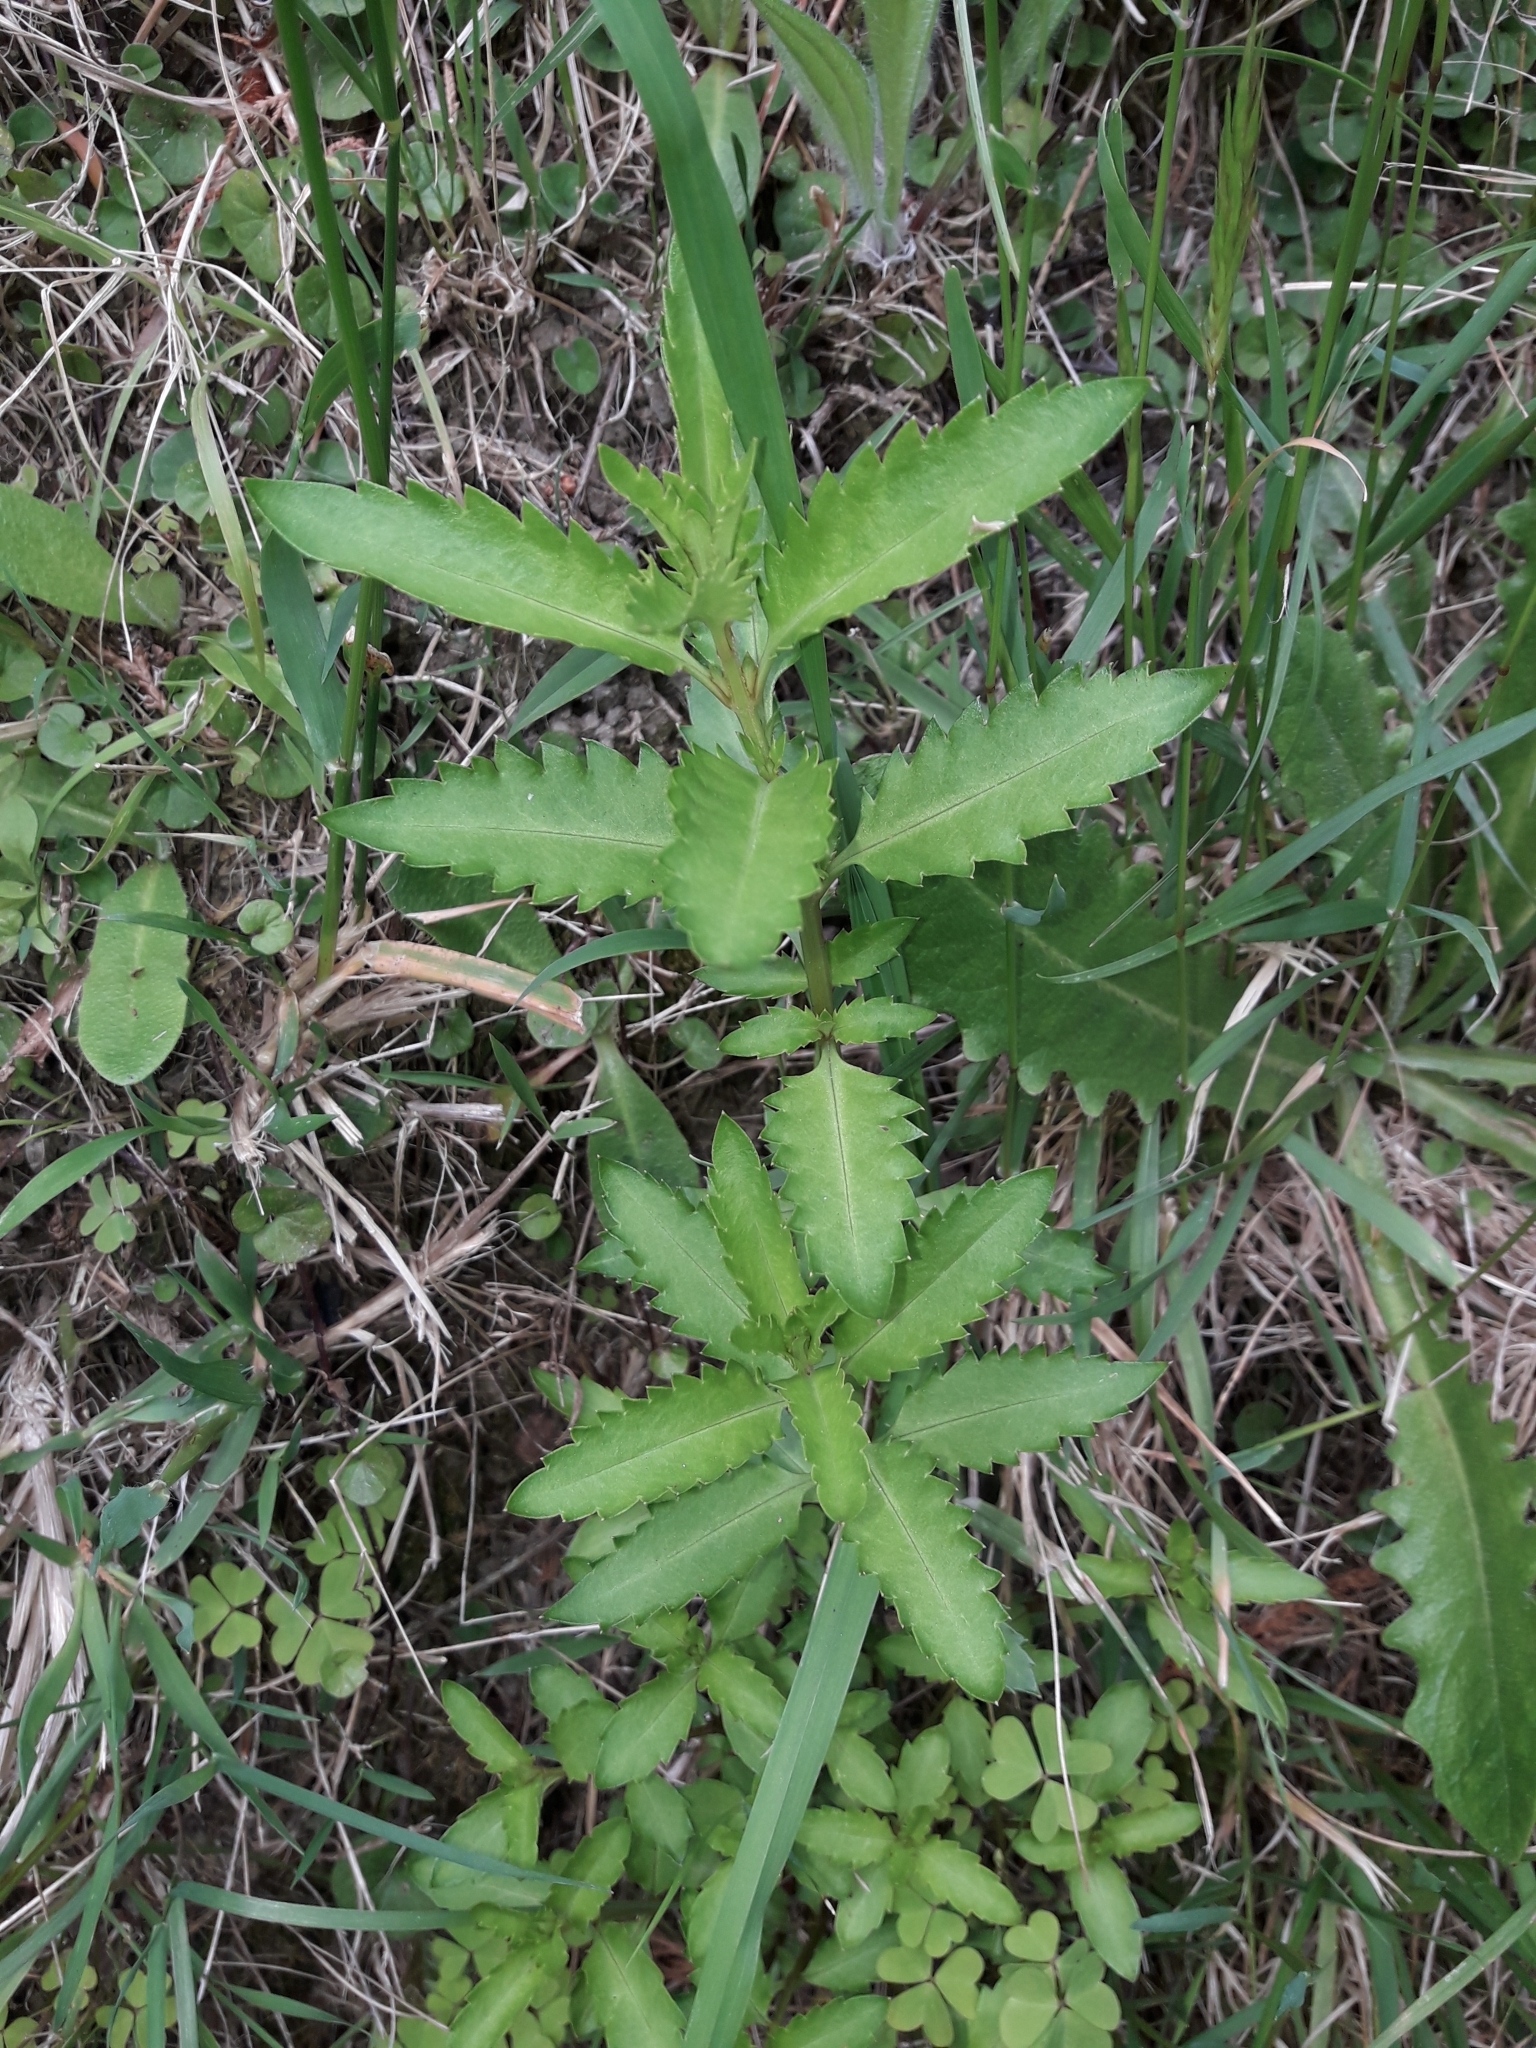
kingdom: Plantae
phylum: Tracheophyta
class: Magnoliopsida
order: Saxifragales
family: Haloragaceae
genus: Haloragis
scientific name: Haloragis erecta
